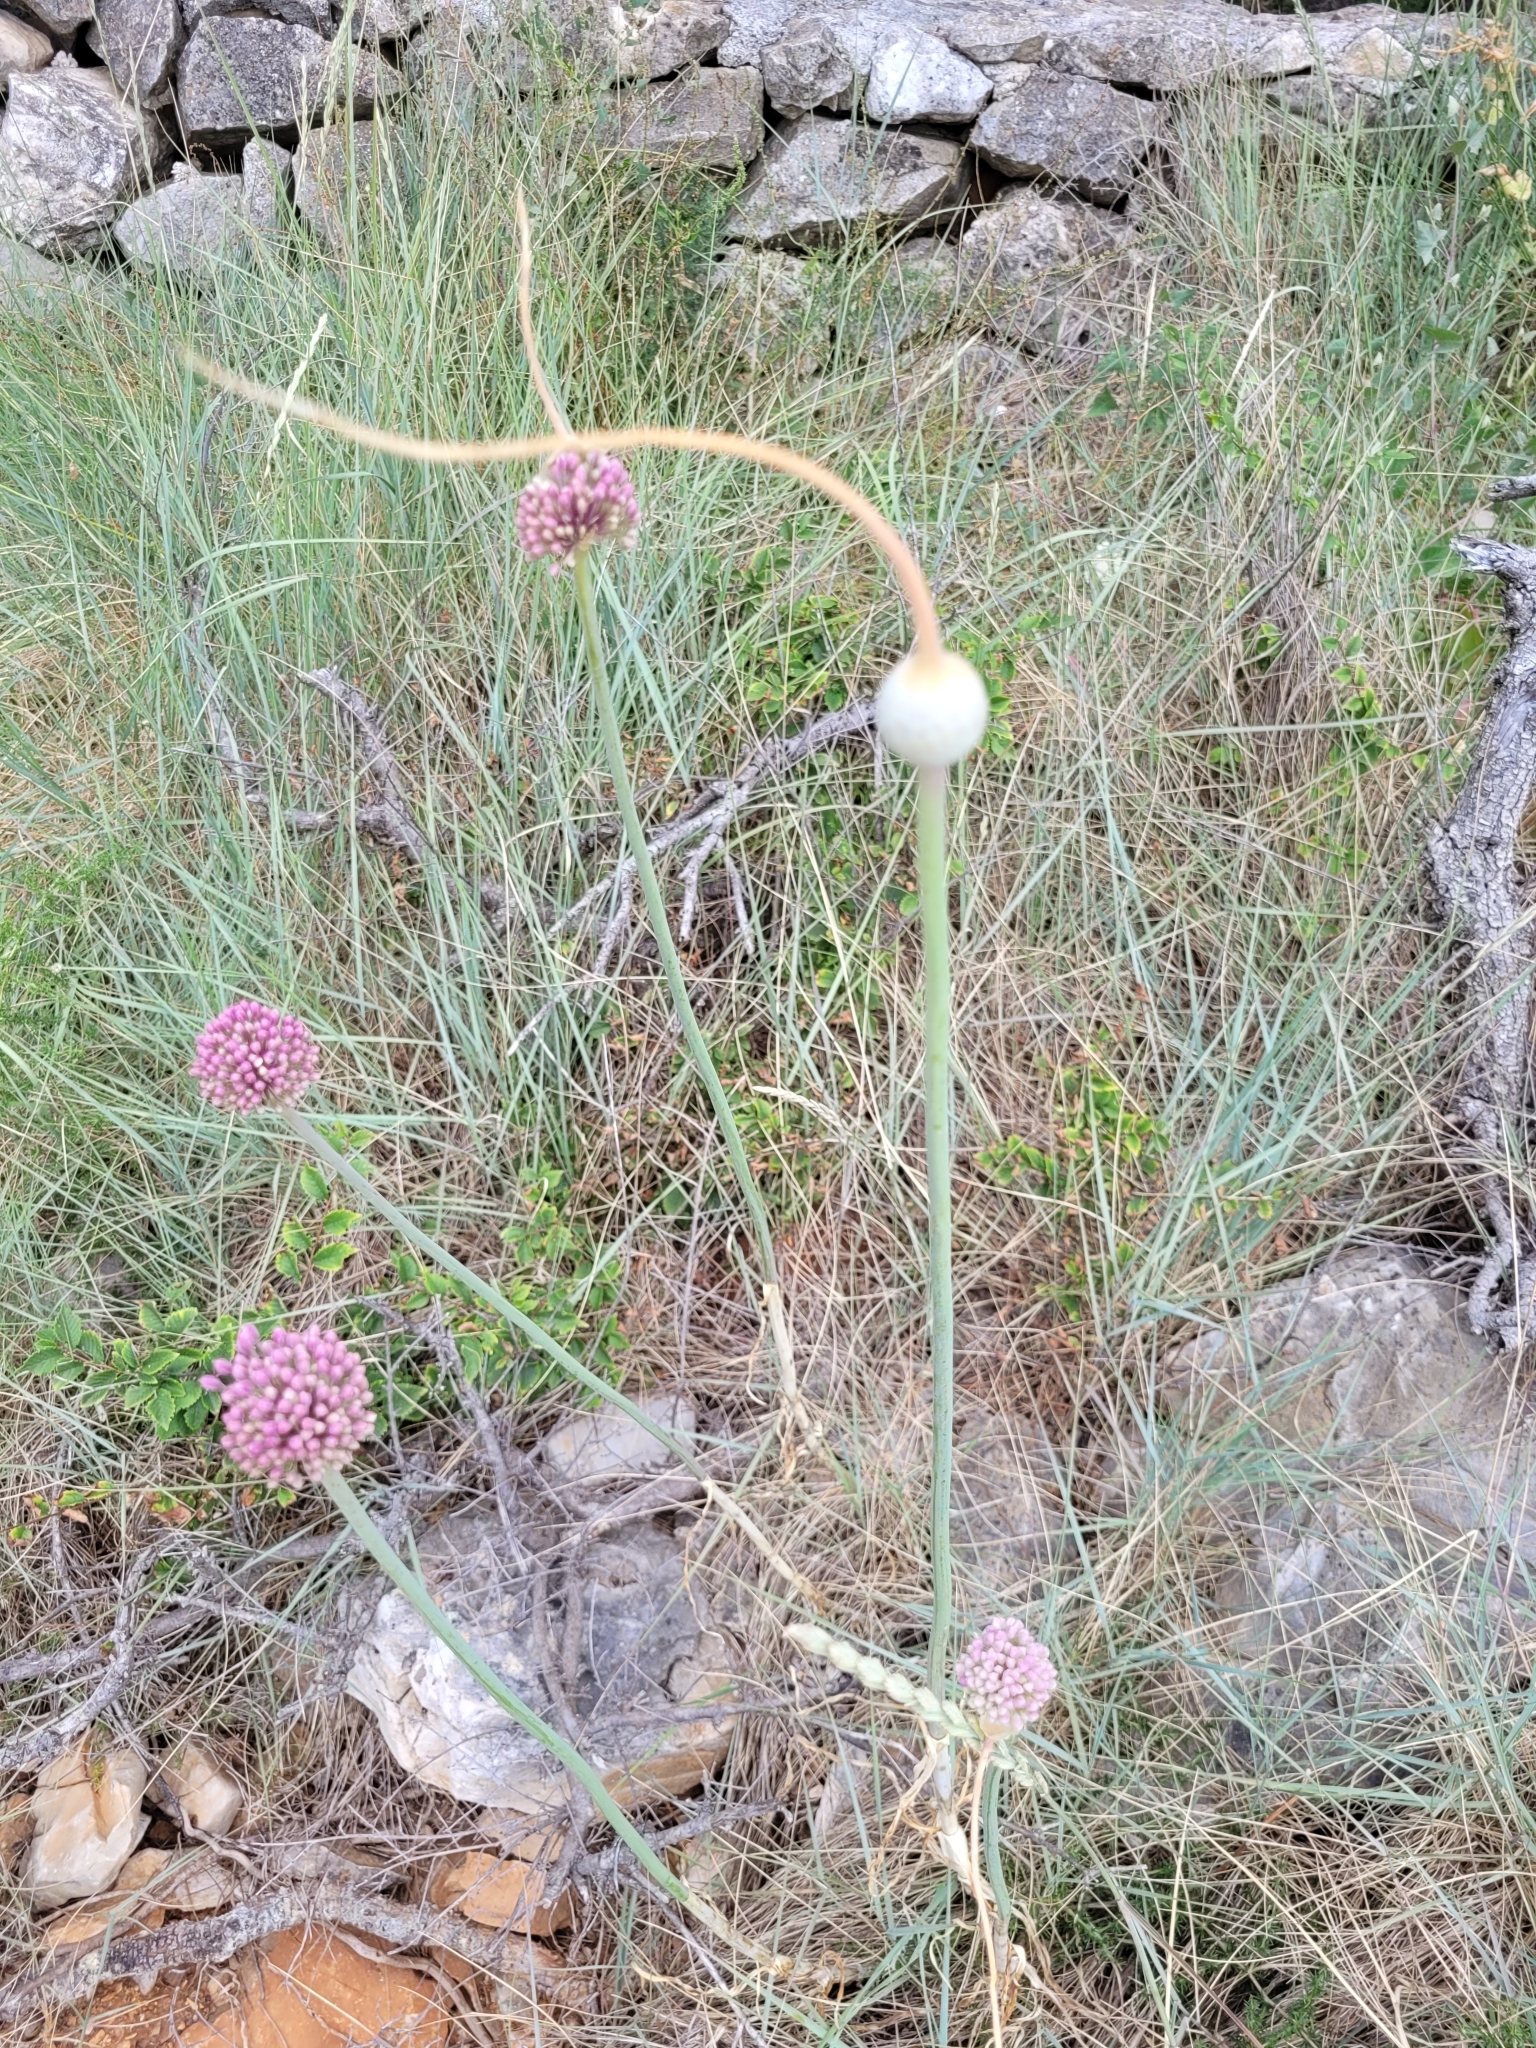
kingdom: Plantae
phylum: Tracheophyta
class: Liliopsida
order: Asparagales
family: Amaryllidaceae
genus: Allium
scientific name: Allium commutatum
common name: Sea garlic
